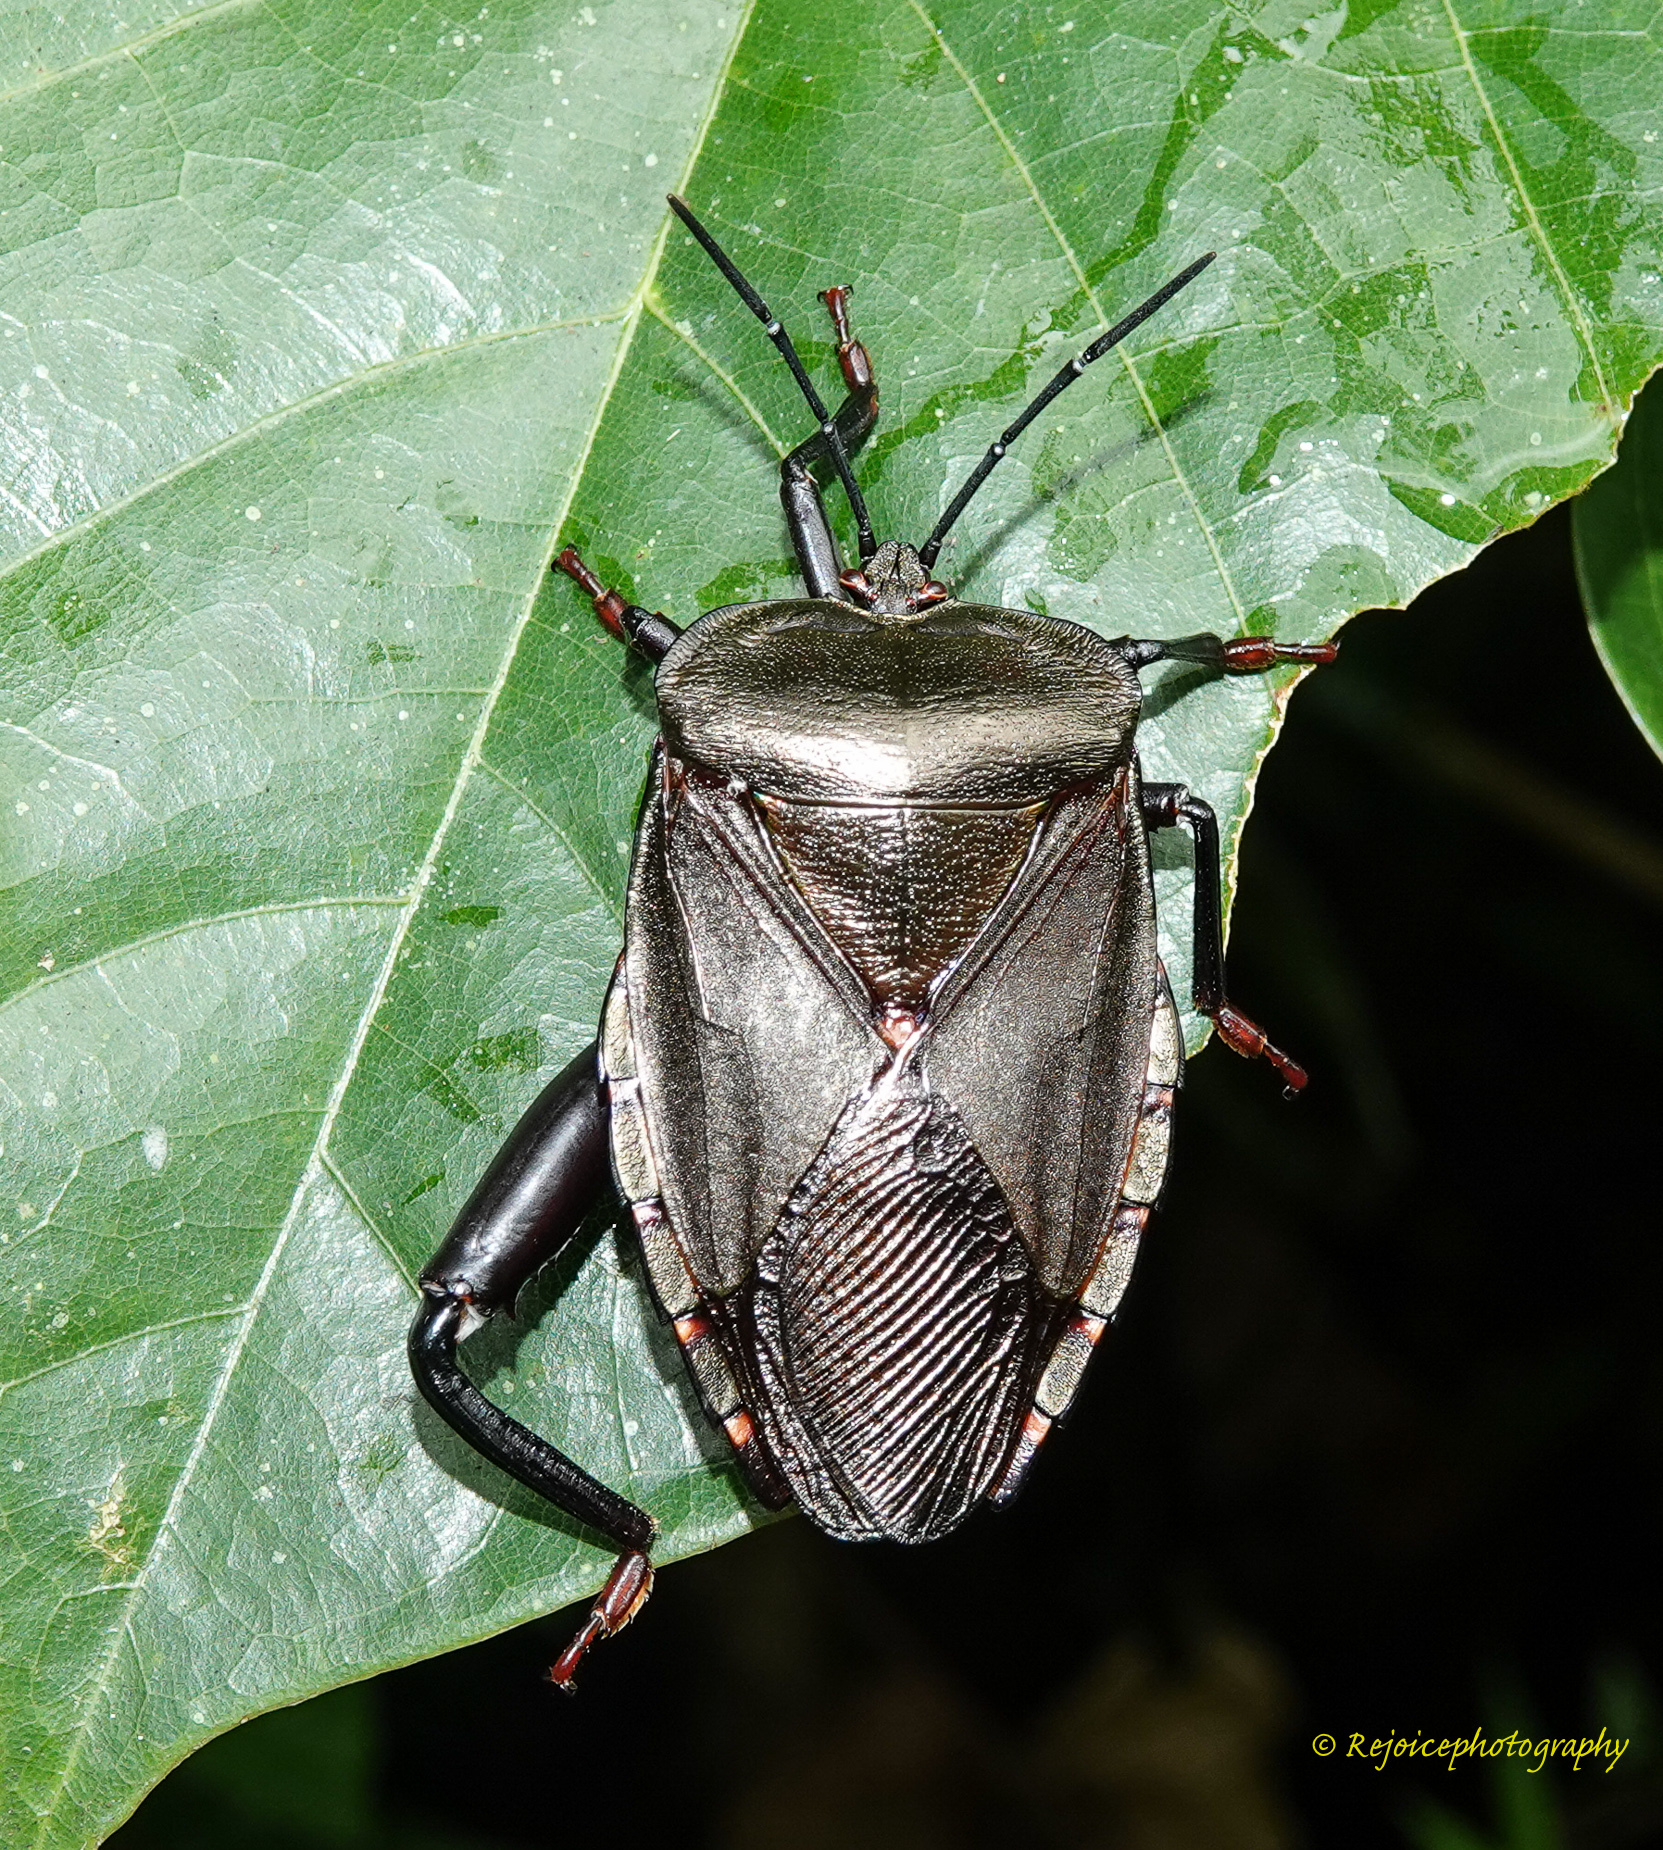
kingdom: Animalia
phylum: Arthropoda
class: Insecta
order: Hemiptera
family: Tessaratomidae
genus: Eusthenes
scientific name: Eusthenes robustus
